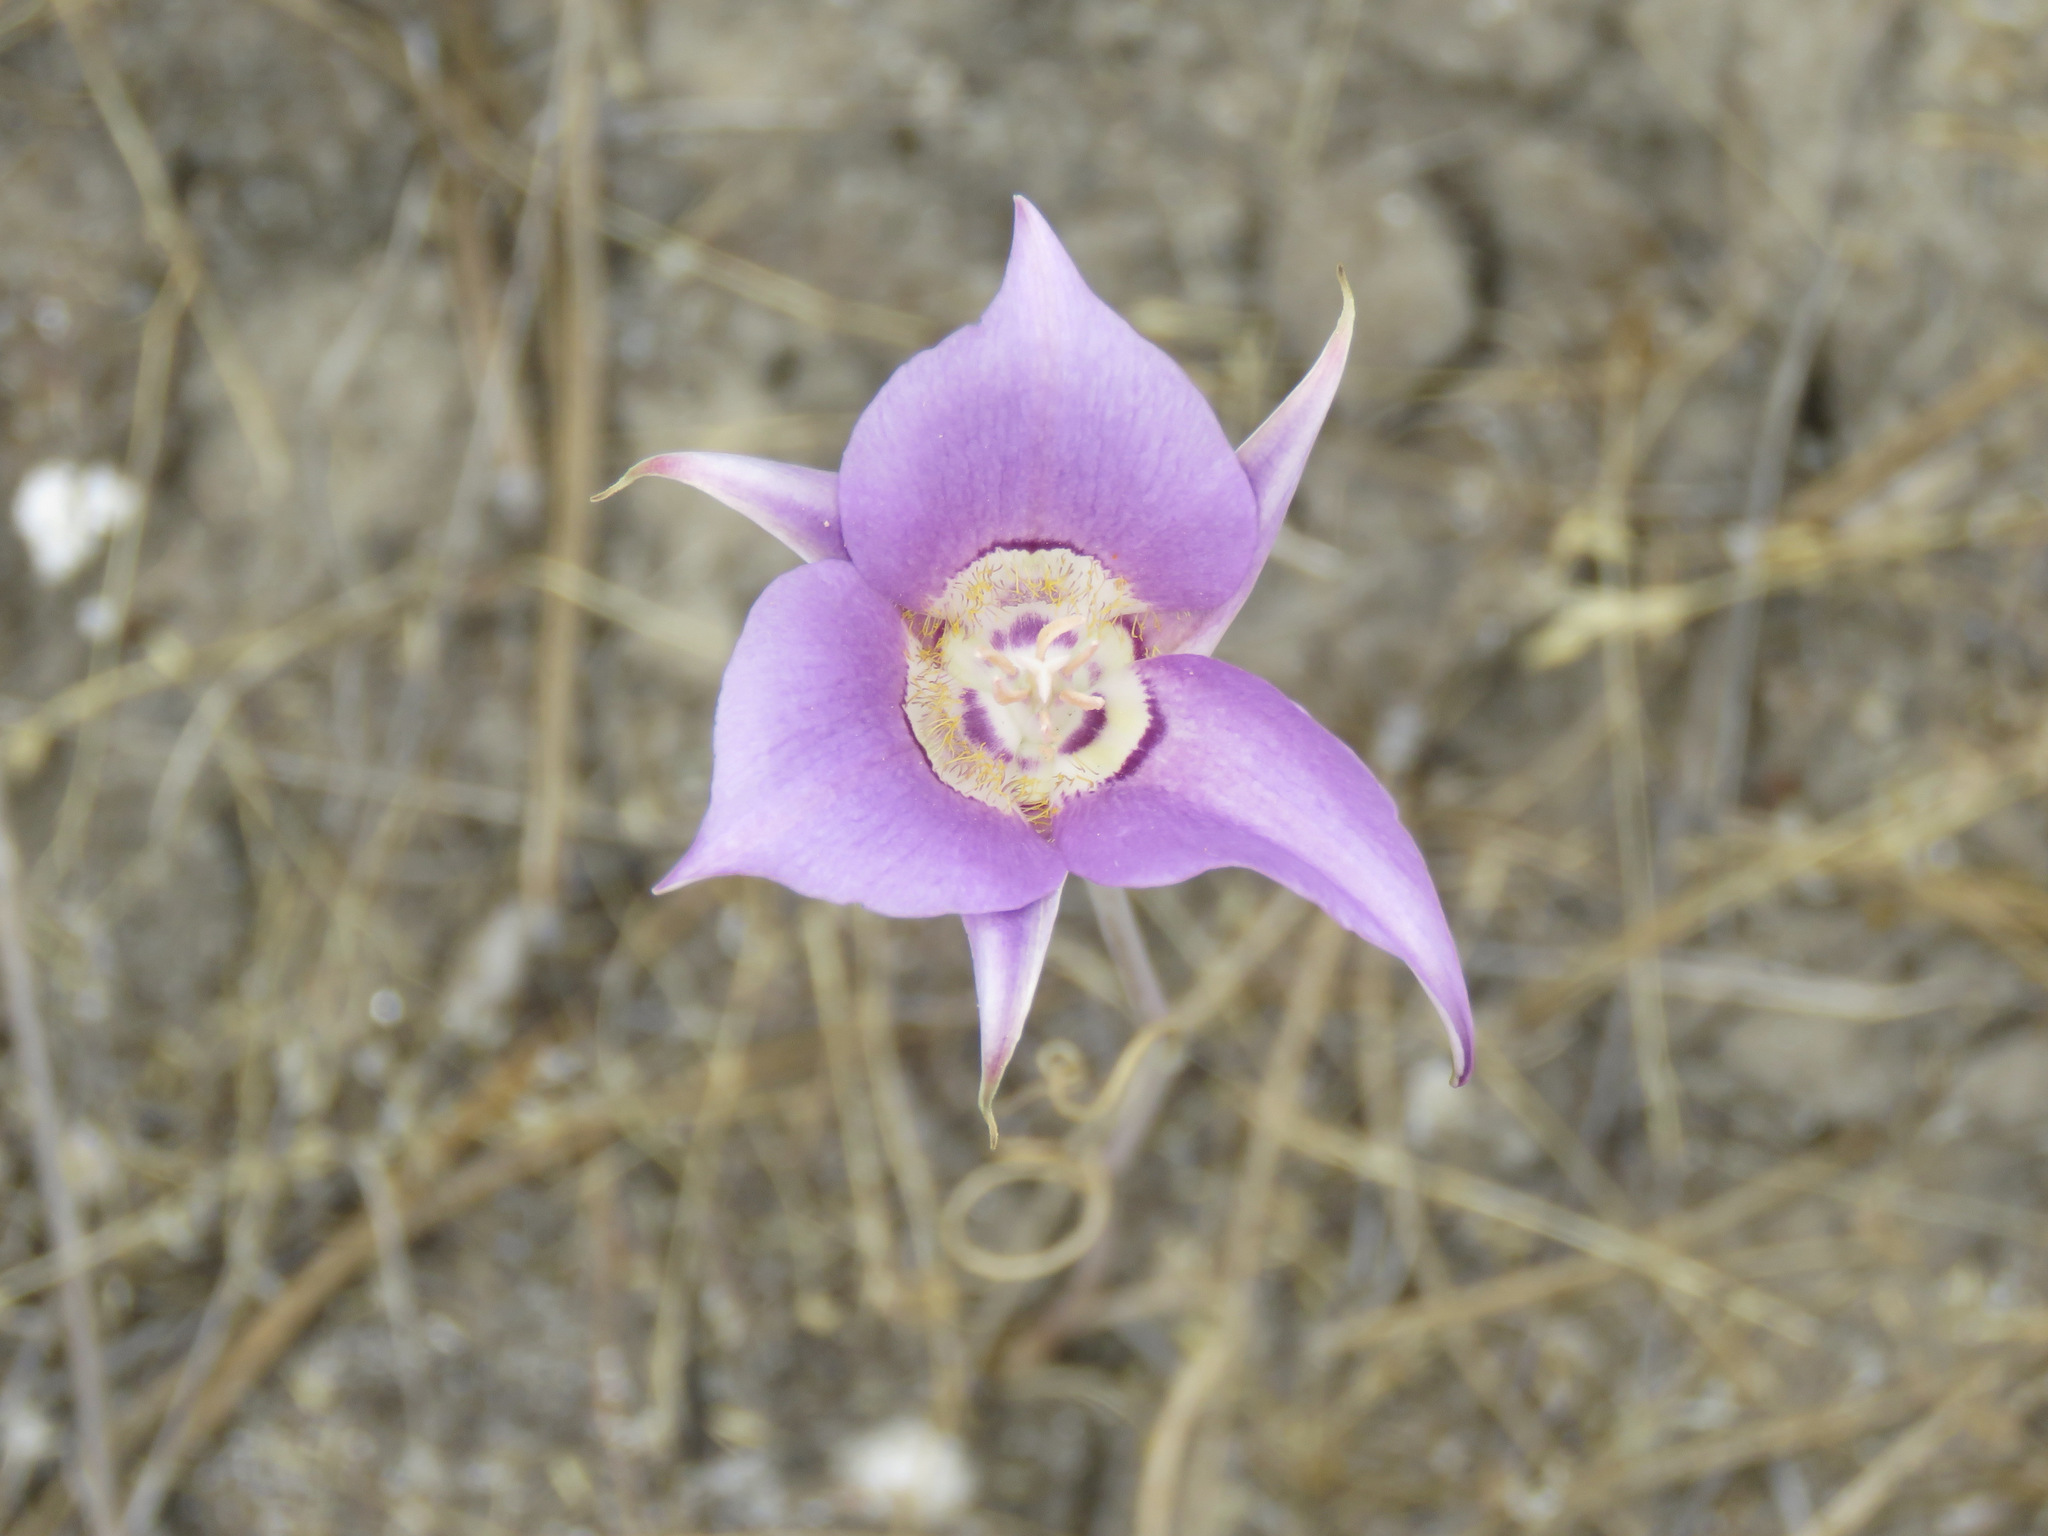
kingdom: Plantae
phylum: Tracheophyta
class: Liliopsida
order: Liliales
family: Liliaceae
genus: Calochortus
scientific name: Calochortus macrocarpus
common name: Green-band mariposa lily
